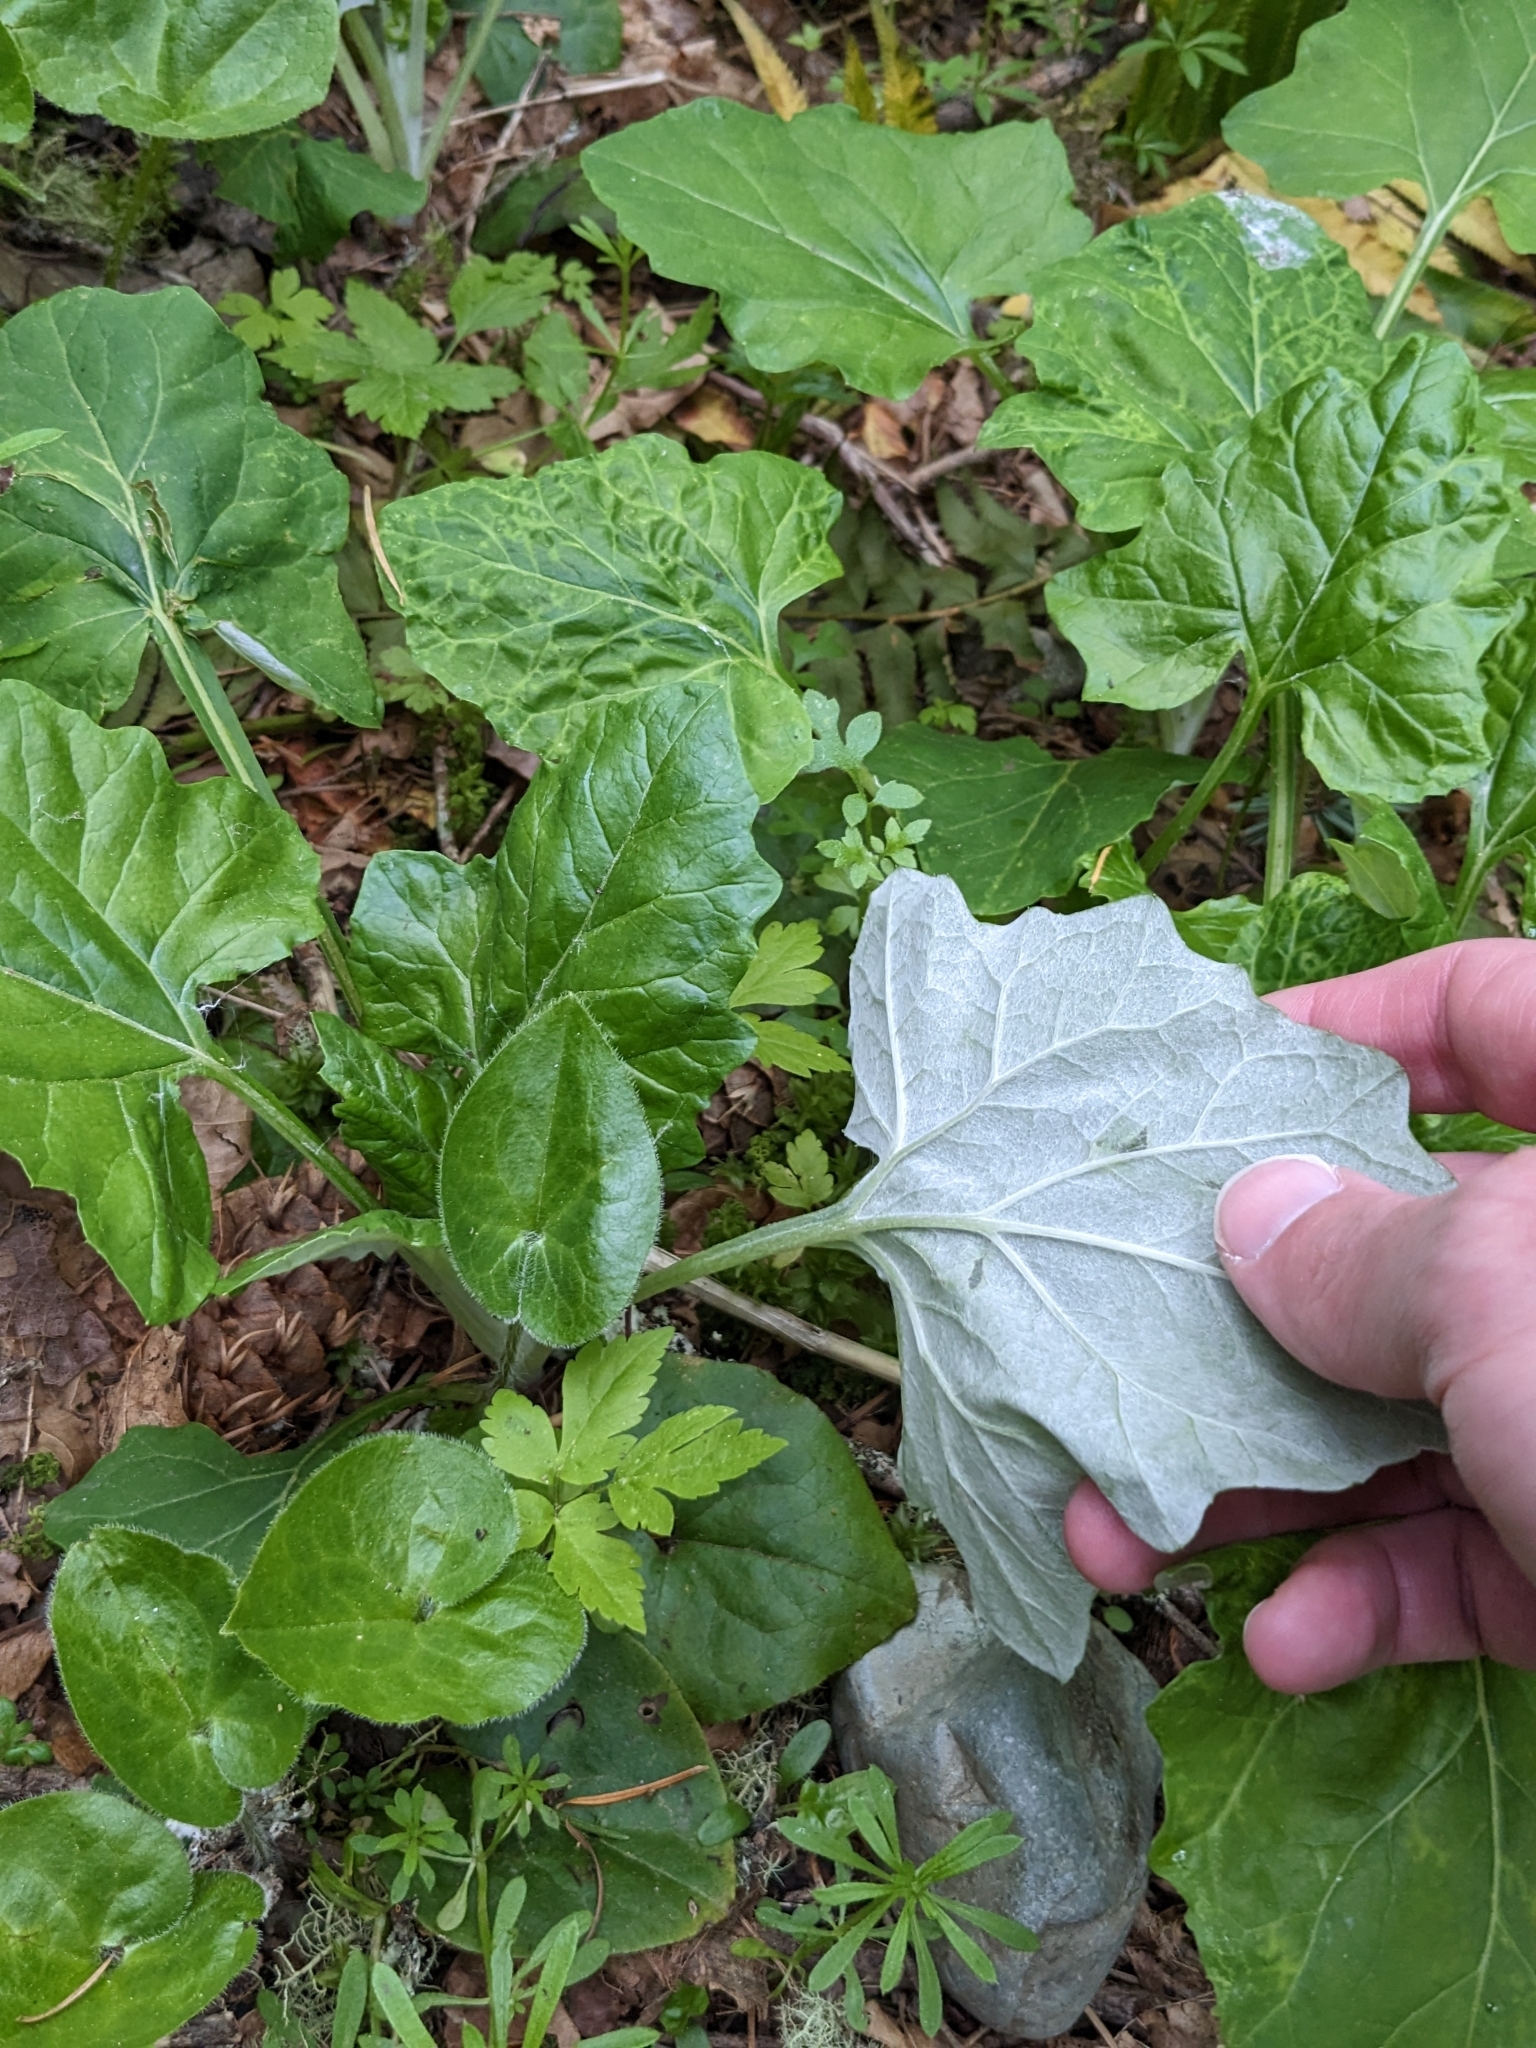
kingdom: Plantae
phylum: Tracheophyta
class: Magnoliopsida
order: Asterales
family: Asteraceae
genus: Adenocaulon
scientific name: Adenocaulon bicolor
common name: Trailplant
